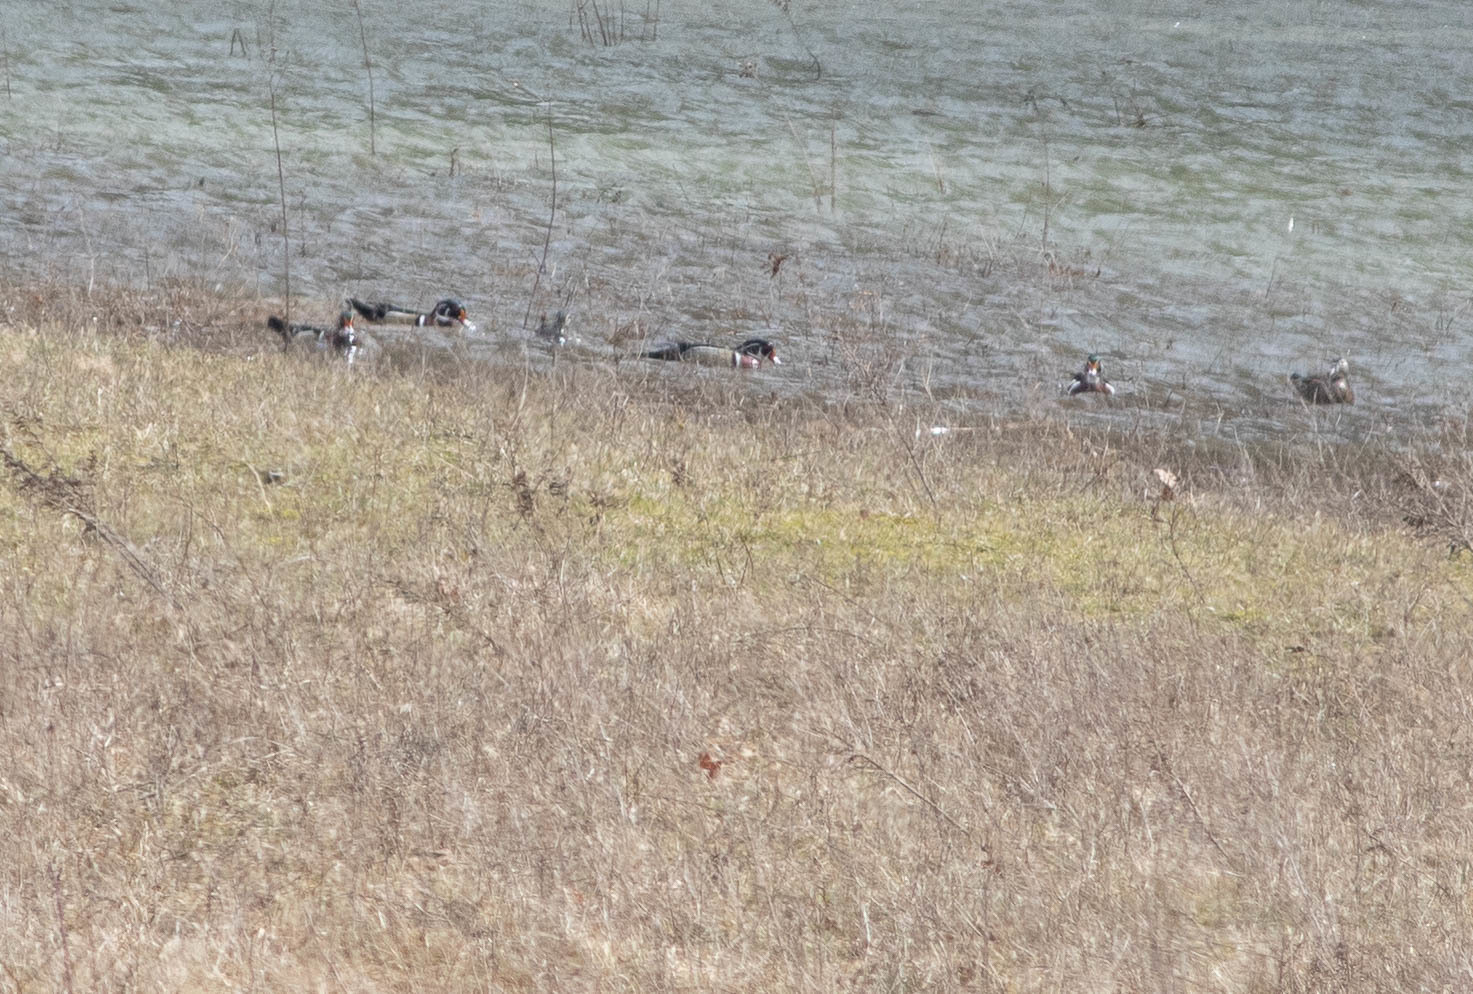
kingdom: Animalia
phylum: Chordata
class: Aves
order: Anseriformes
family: Anatidae
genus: Aix
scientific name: Aix sponsa
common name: Wood duck
